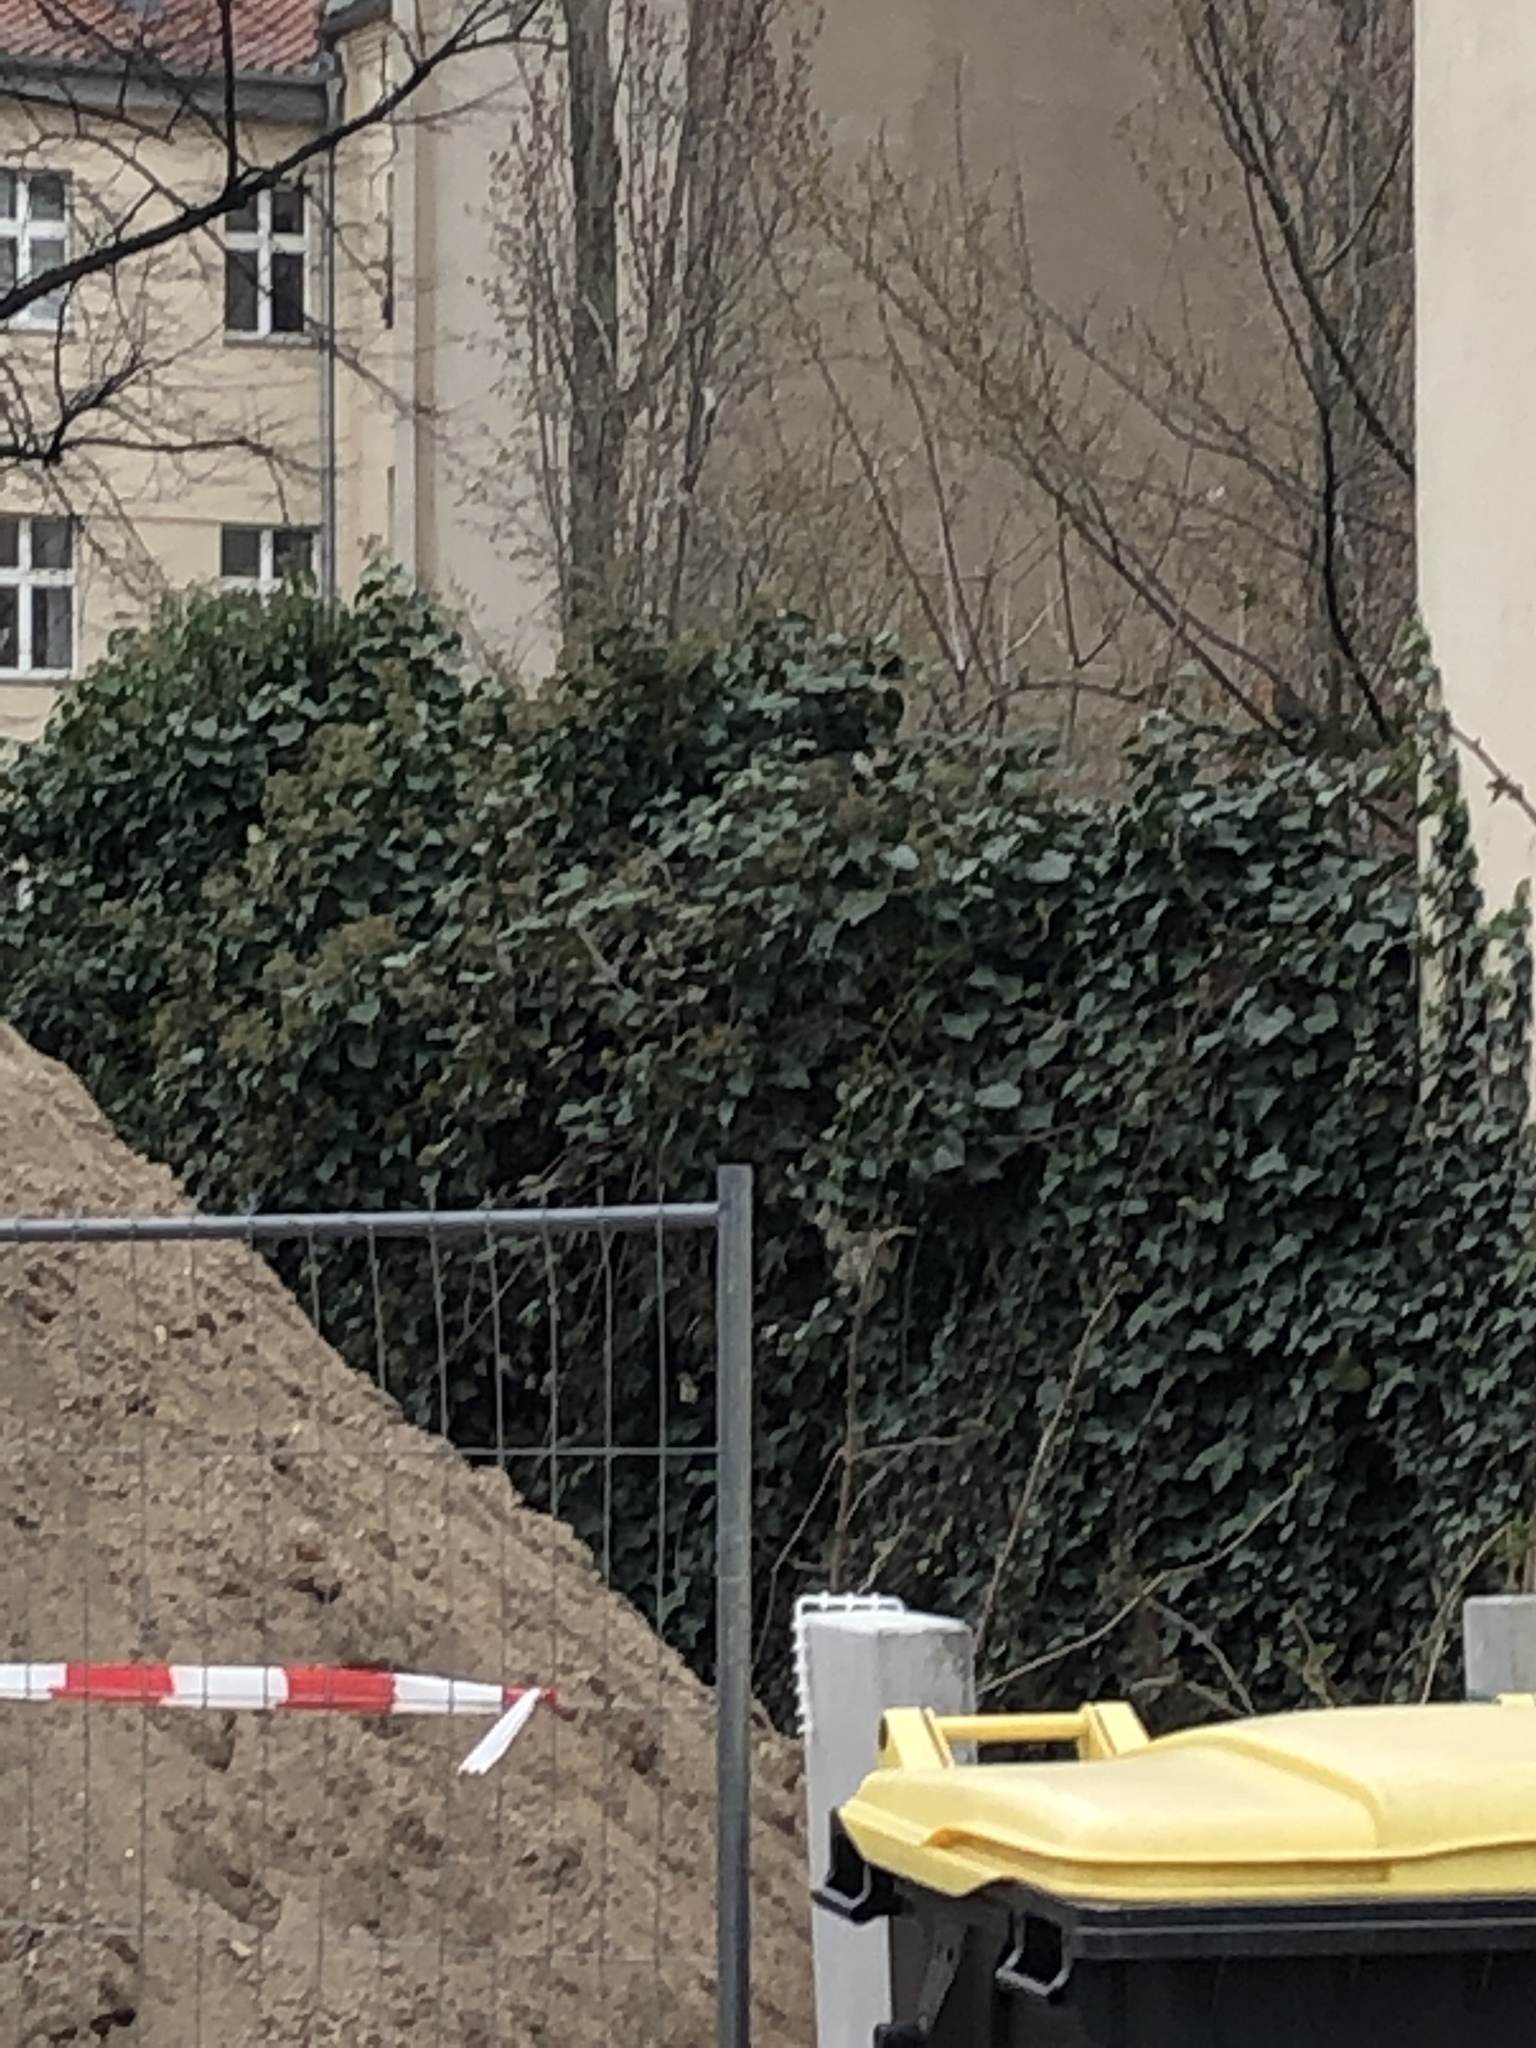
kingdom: Plantae
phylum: Tracheophyta
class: Magnoliopsida
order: Apiales
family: Araliaceae
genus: Hedera
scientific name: Hedera helix
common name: Ivy
